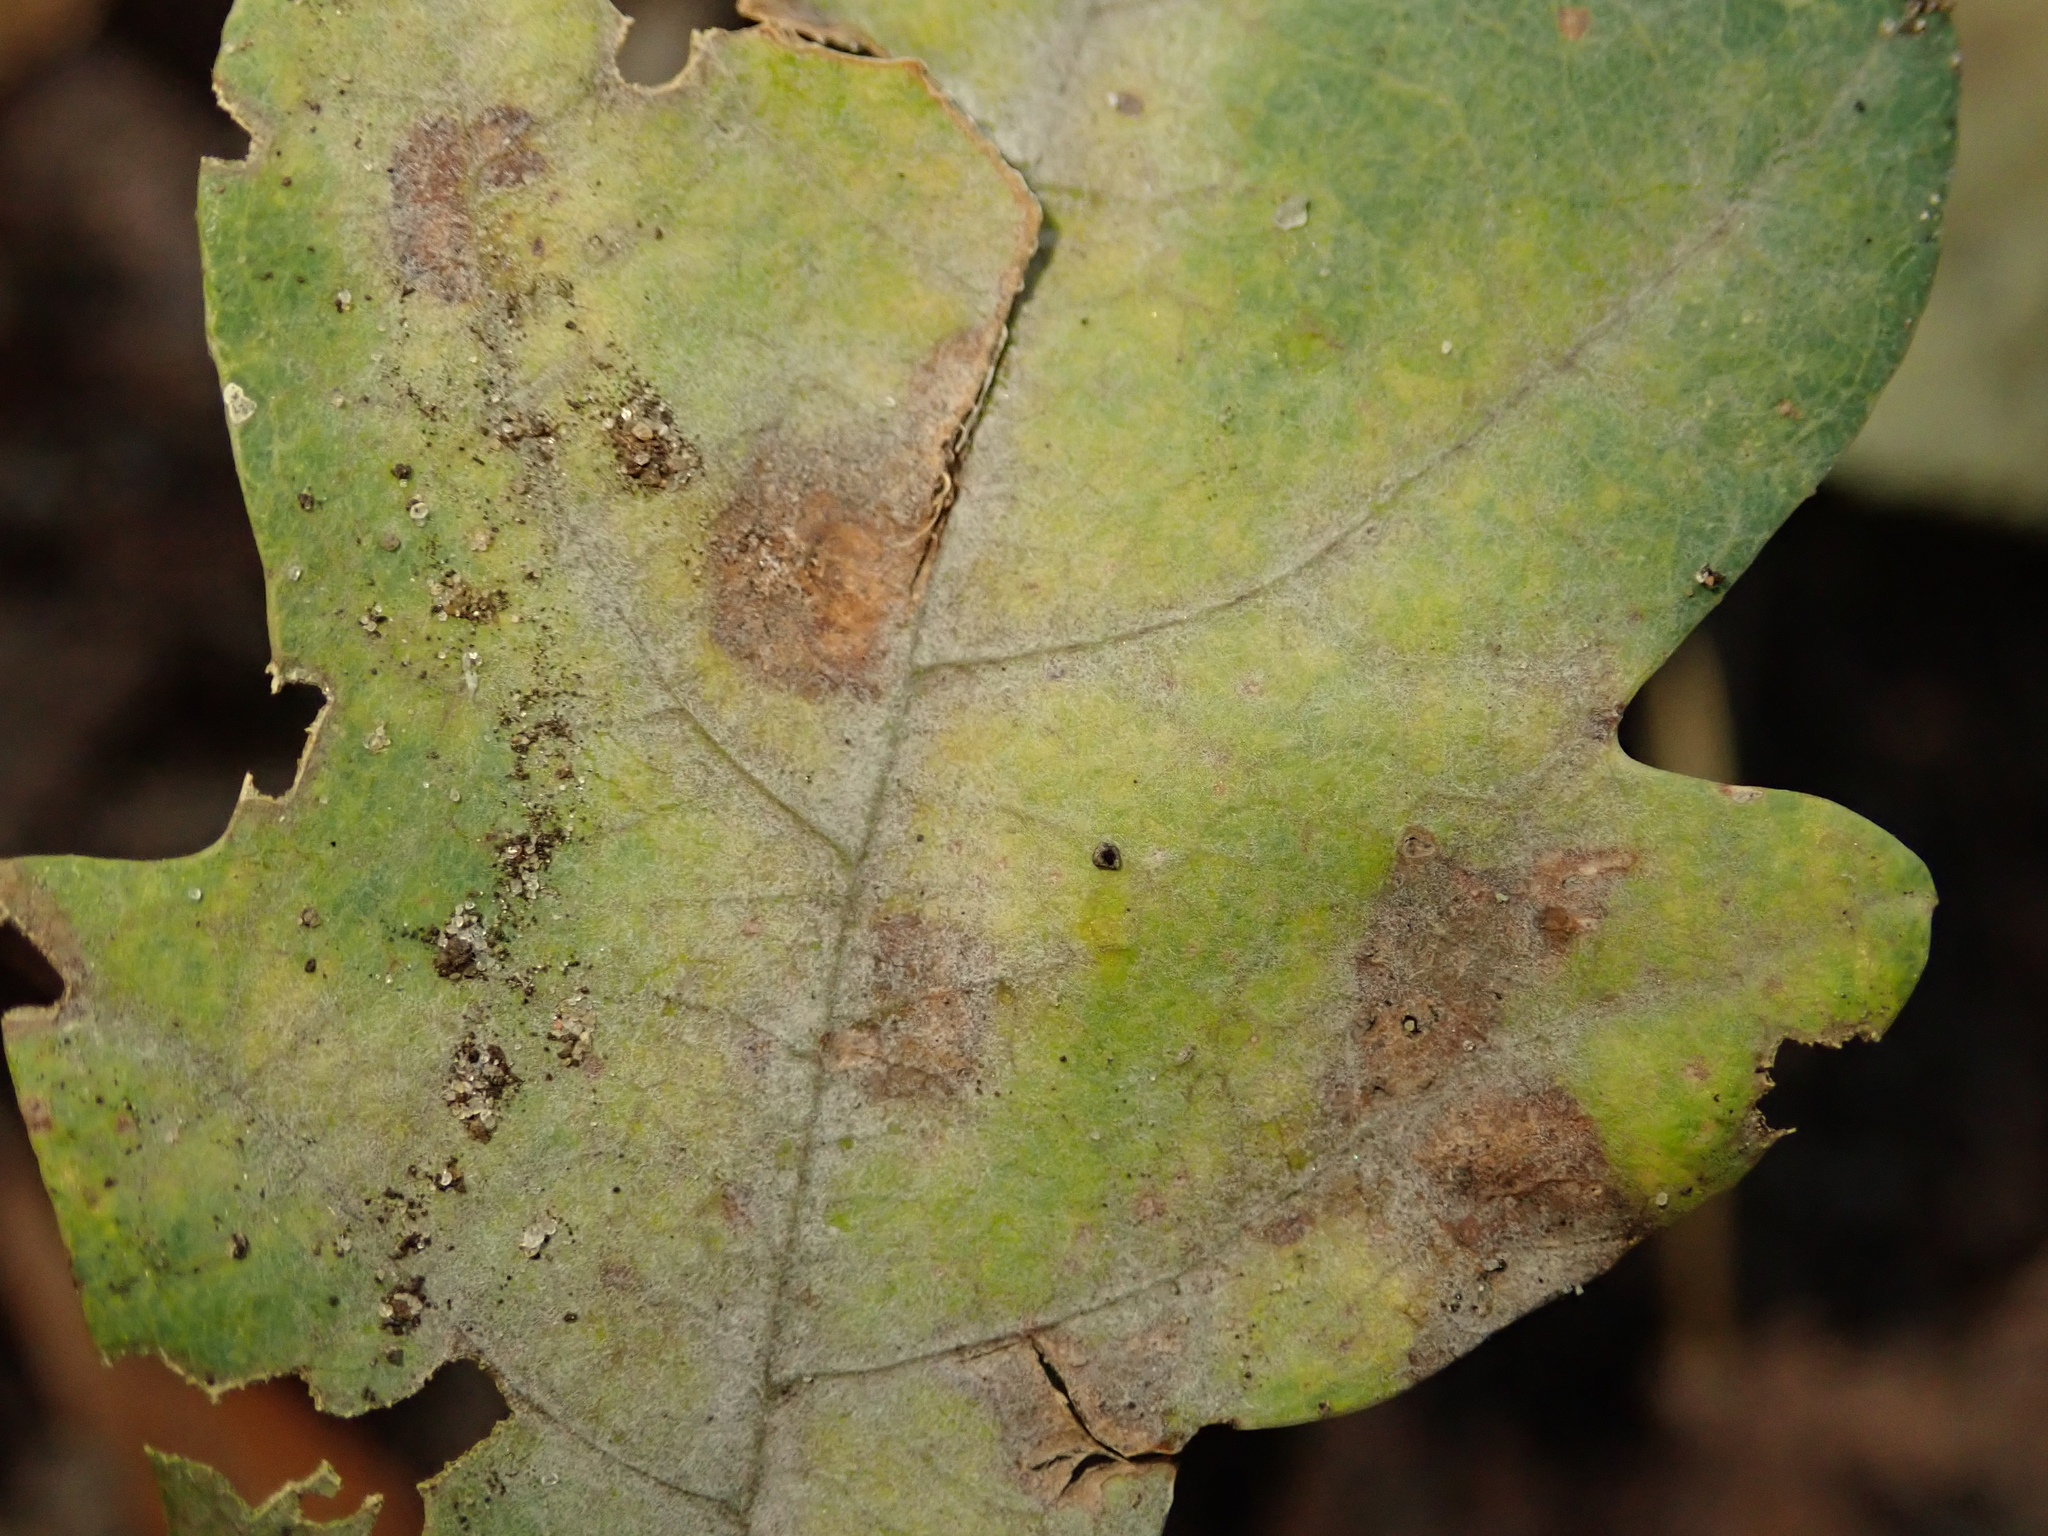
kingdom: Fungi
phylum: Ascomycota
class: Leotiomycetes
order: Helotiales
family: Erysiphaceae
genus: Erysiphe
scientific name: Erysiphe
